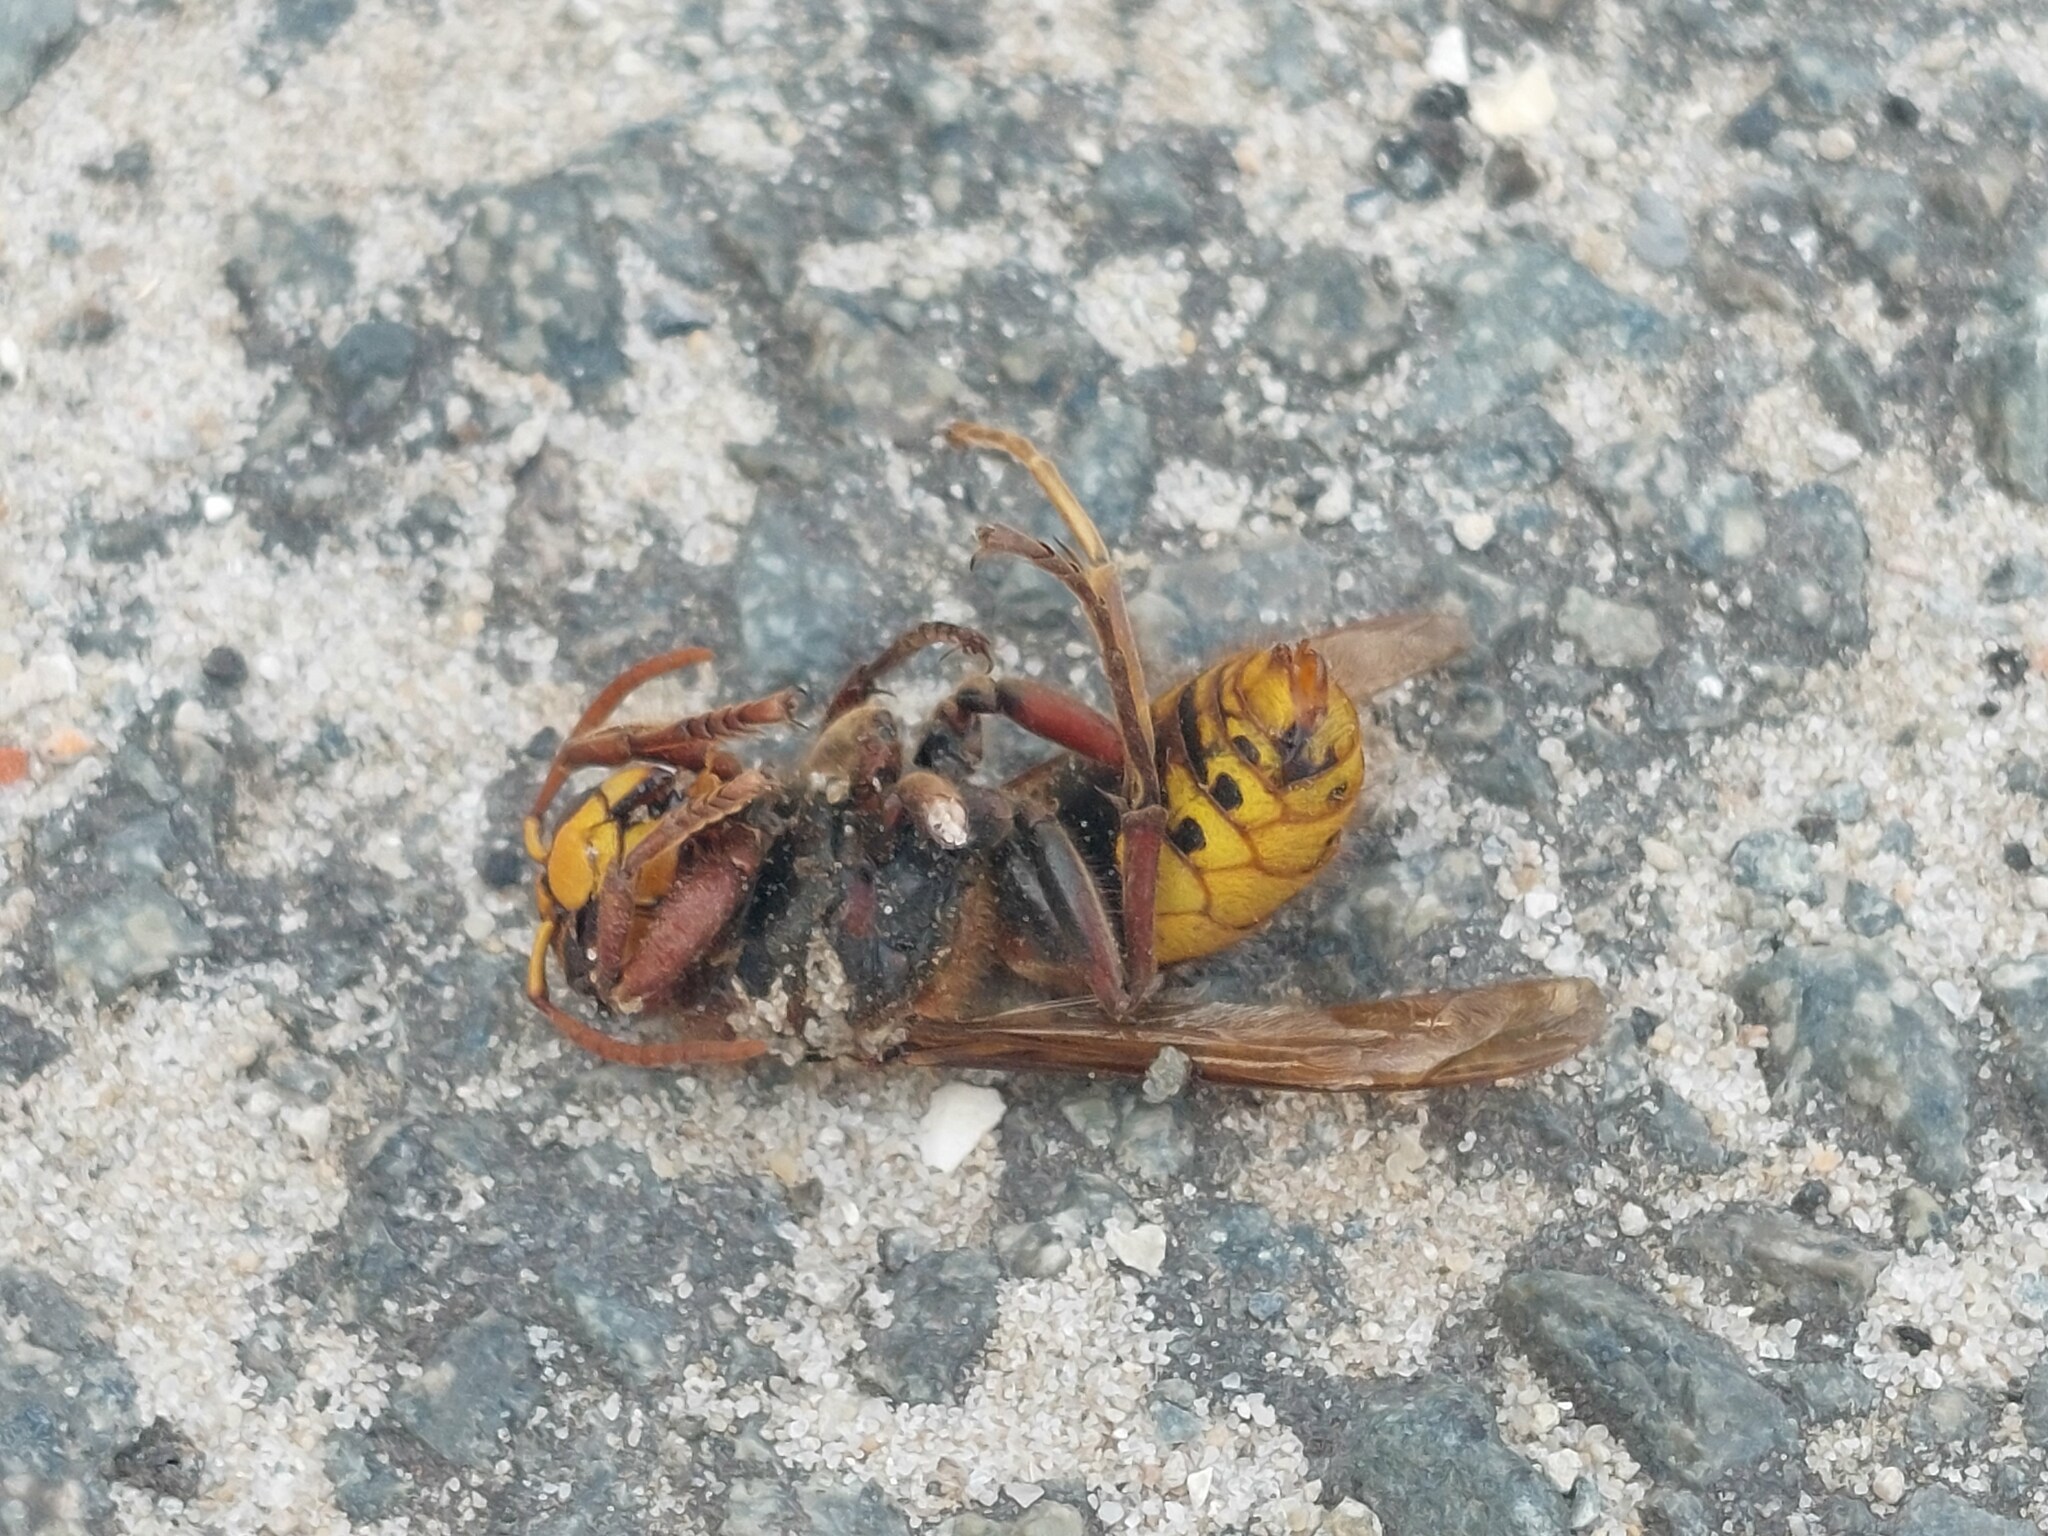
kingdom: Animalia
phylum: Arthropoda
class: Insecta
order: Hymenoptera
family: Vespidae
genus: Vespa
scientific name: Vespa crabro
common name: Hornet
